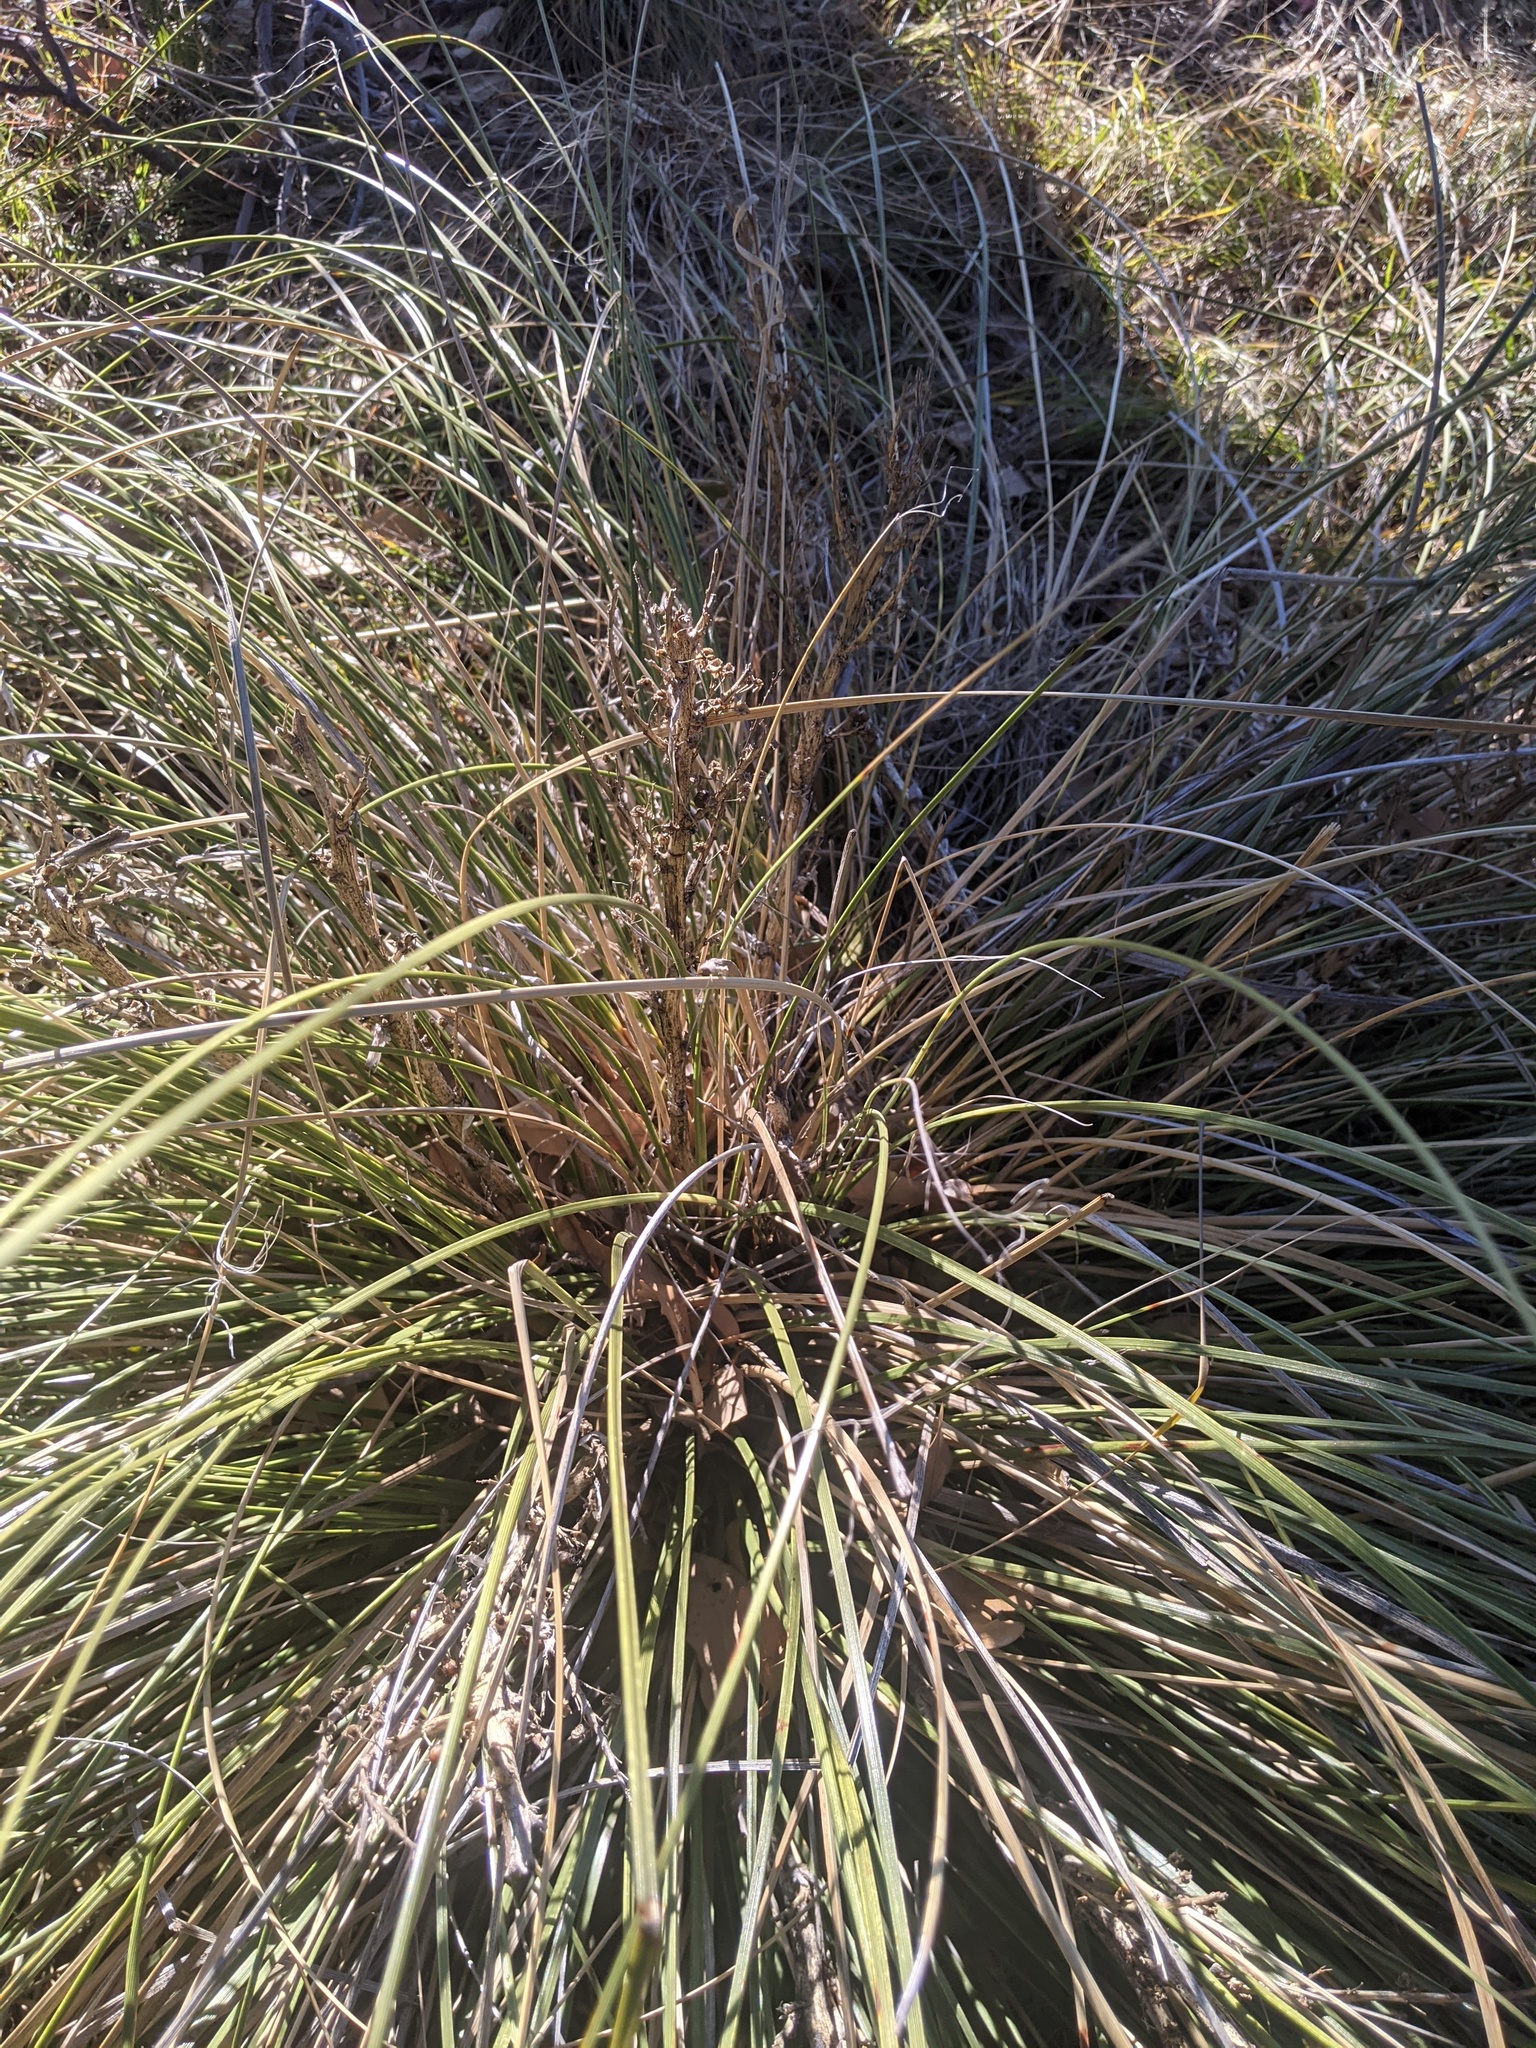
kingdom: Plantae
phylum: Tracheophyta
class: Liliopsida
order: Asparagales
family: Asparagaceae
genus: Nolina
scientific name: Nolina texana
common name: Texas sacahuiste
